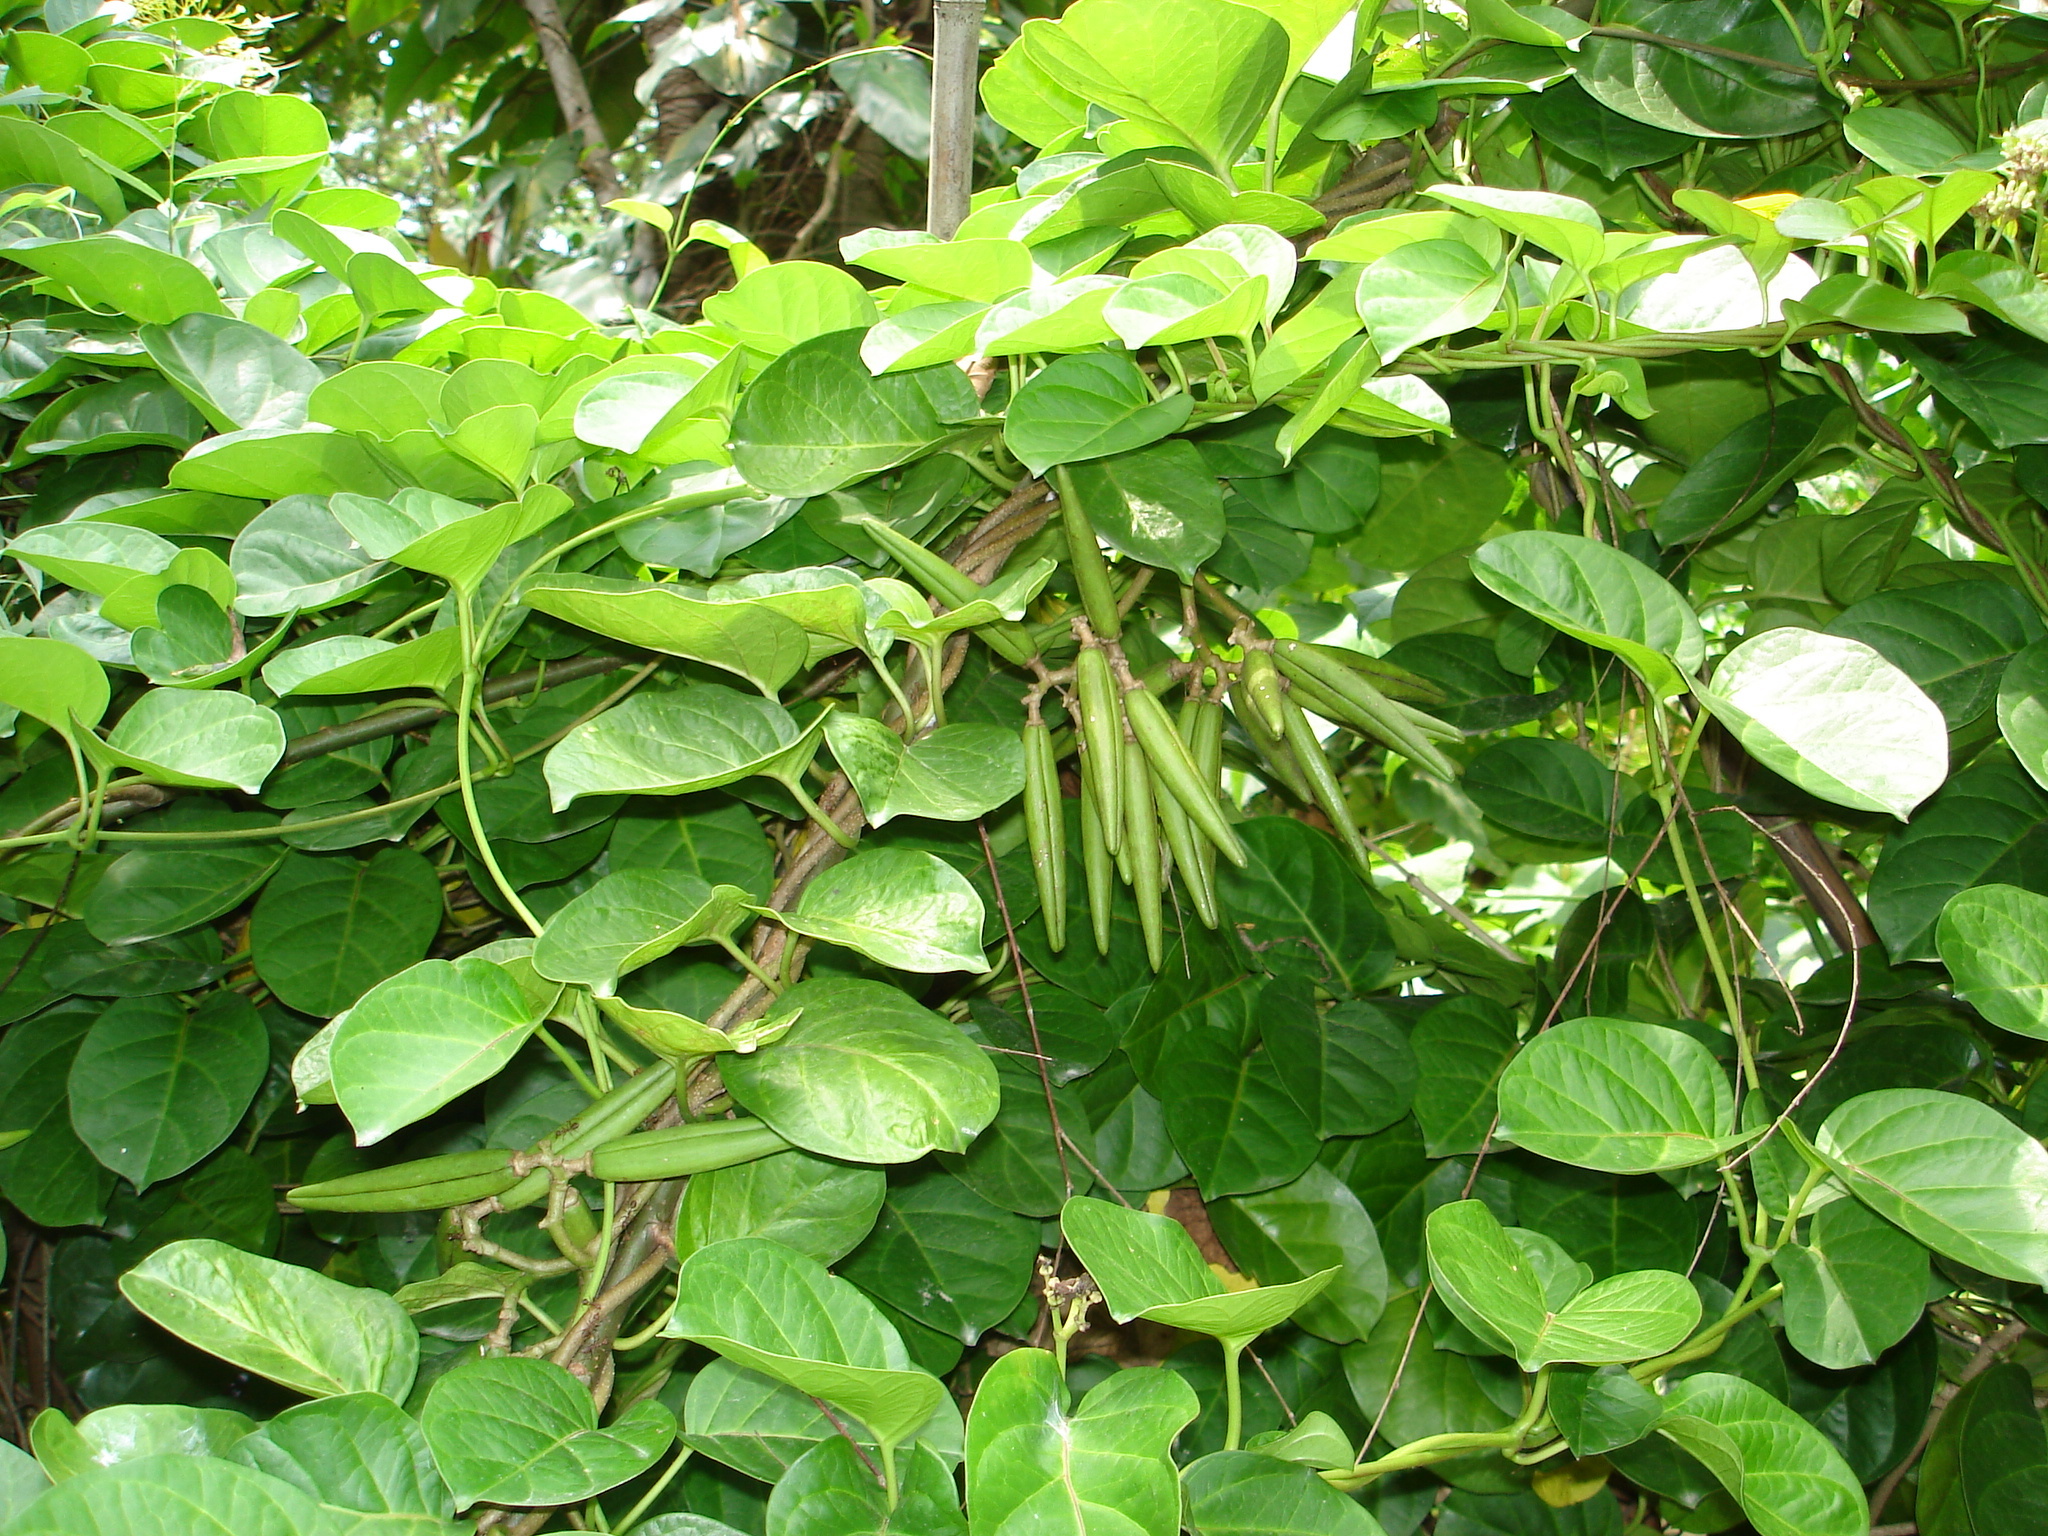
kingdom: Plantae
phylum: Tracheophyta
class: Magnoliopsida
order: Gentianales
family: Apocynaceae
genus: Parsonsia
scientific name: Parsonsia alboflavescens
